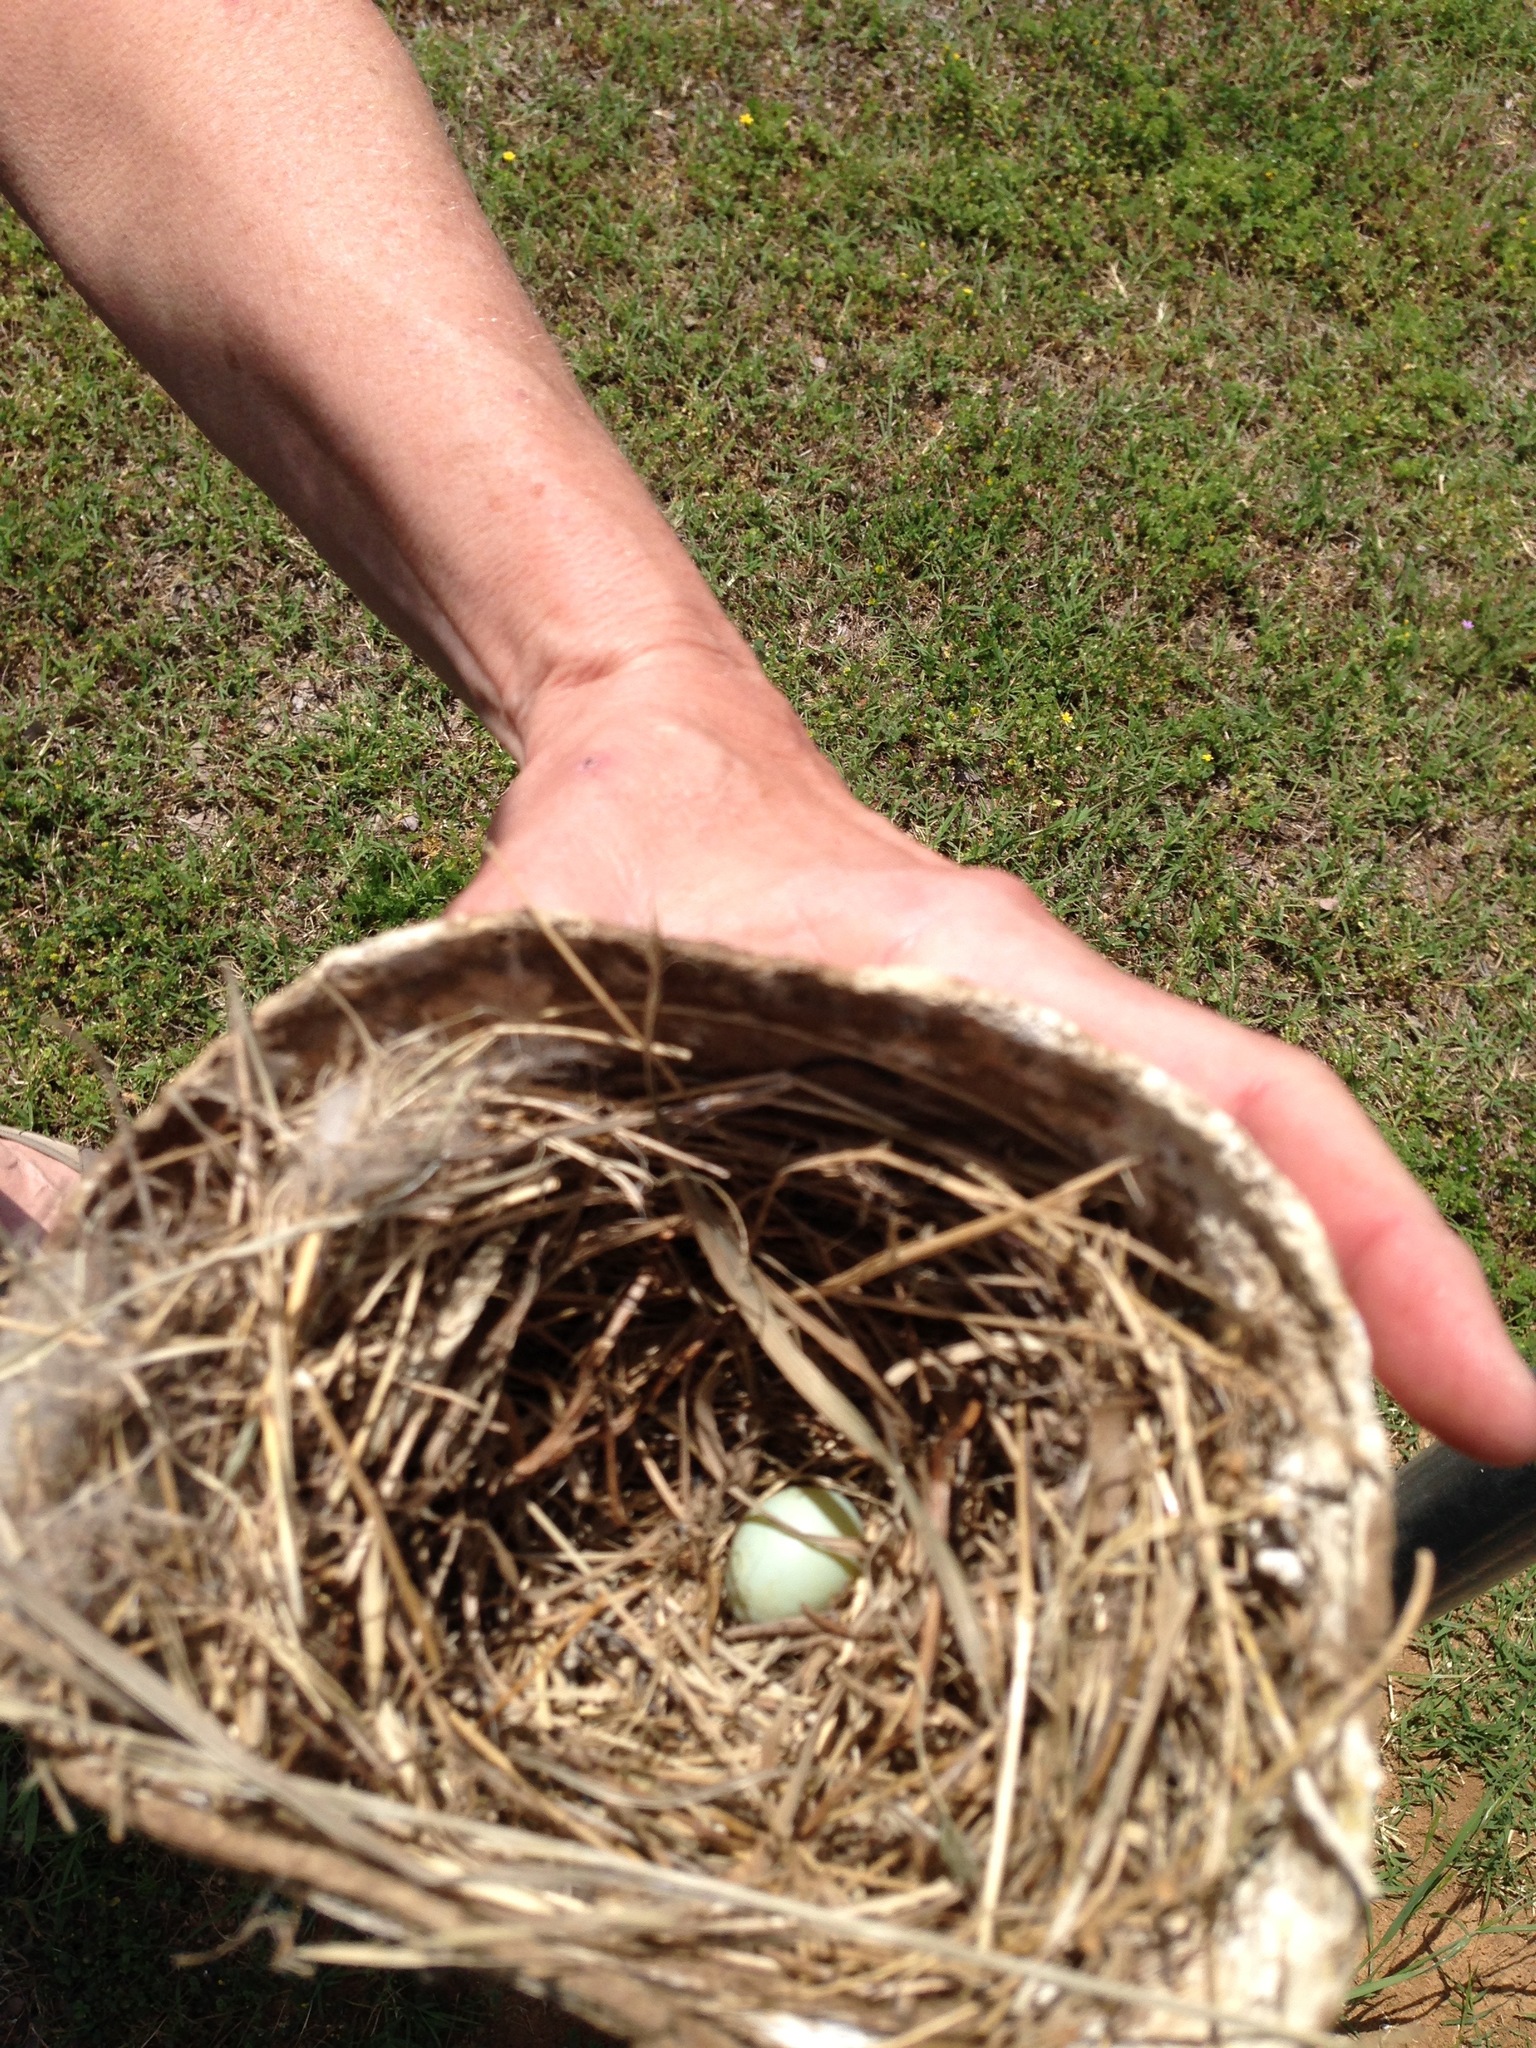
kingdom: Animalia
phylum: Chordata
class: Aves
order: Passeriformes
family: Turdidae
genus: Sialia
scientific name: Sialia sialis
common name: Eastern bluebird
